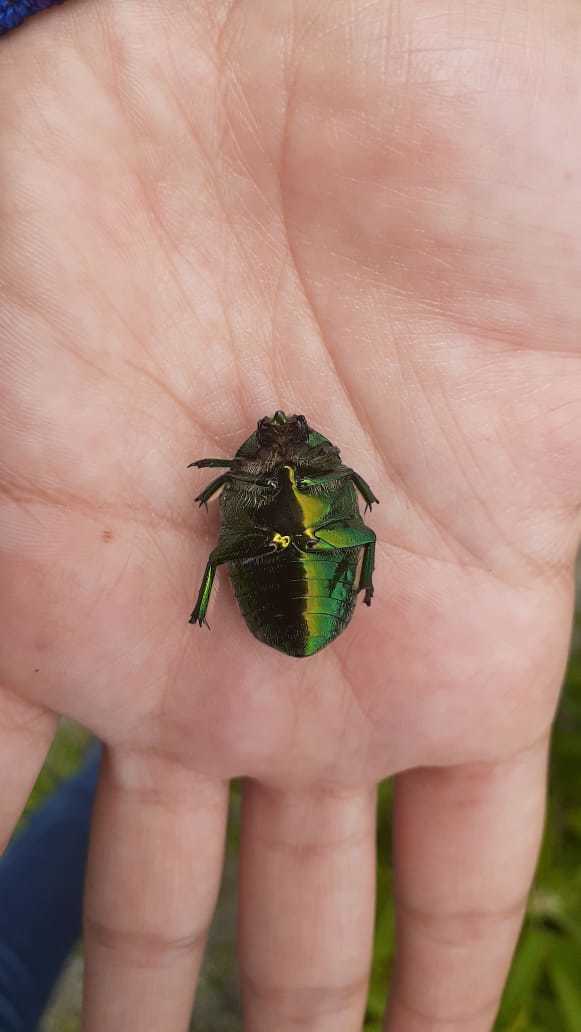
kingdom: Animalia
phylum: Arthropoda
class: Insecta
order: Coleoptera
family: Scarabaeidae
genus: Cotinis
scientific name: Cotinis mutabilis
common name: Figeater beetle
